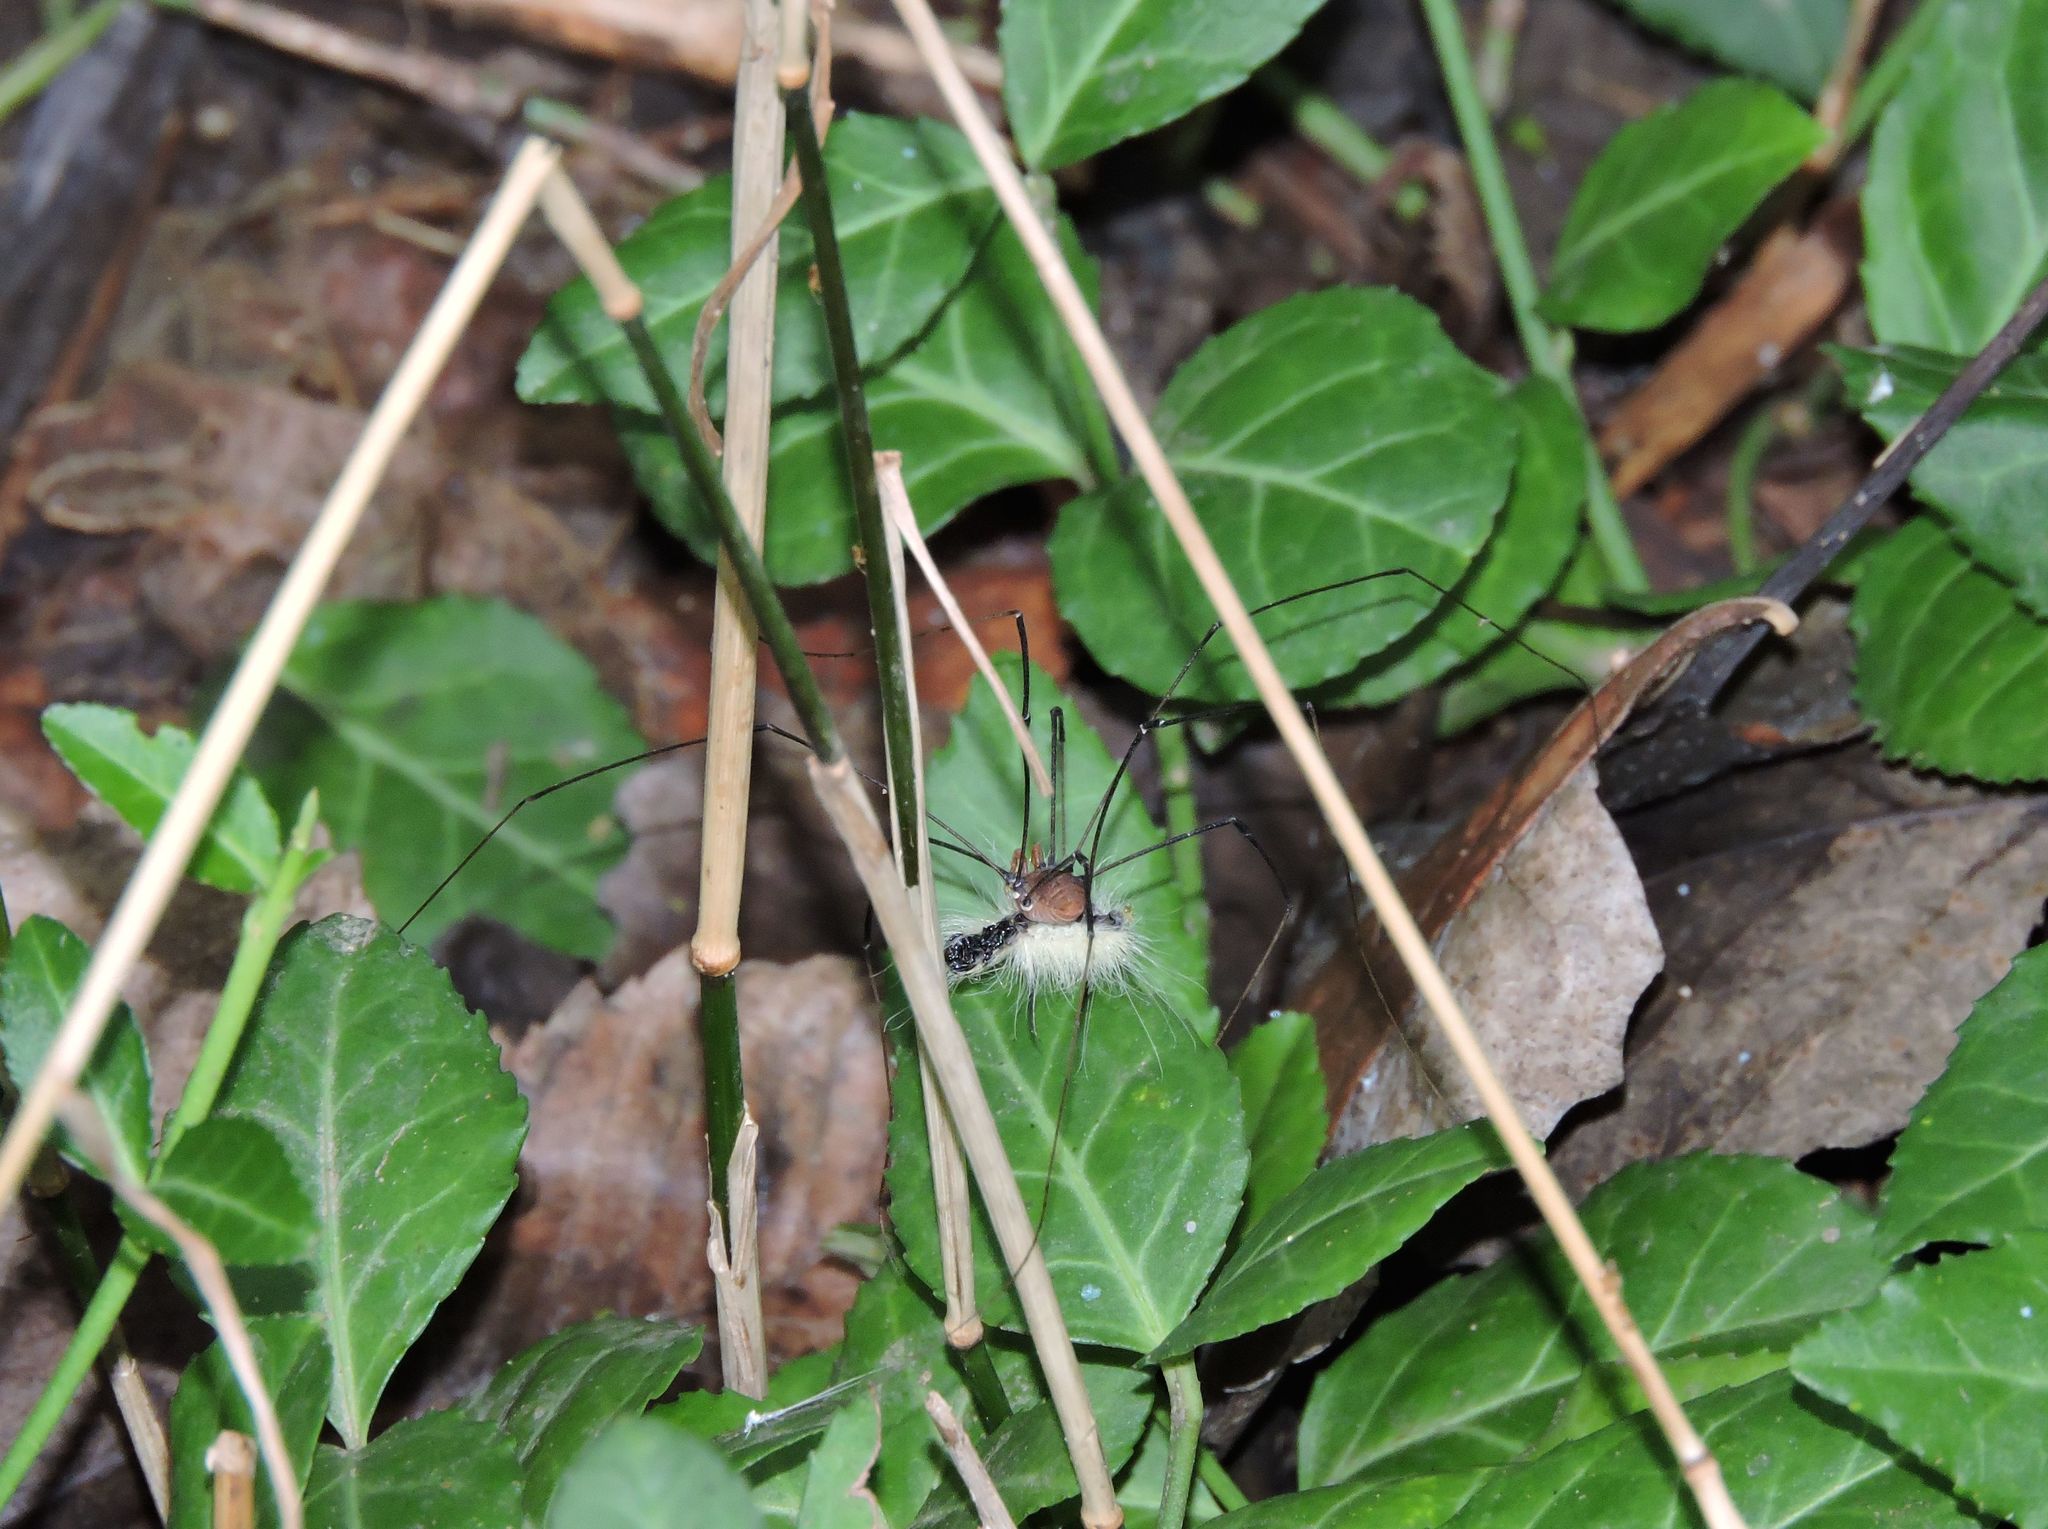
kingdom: Animalia
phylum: Arthropoda
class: Arachnida
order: Opiliones
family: Sclerosomatidae
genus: Leiobunum
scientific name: Leiobunum vittatum
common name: Eastern harvestman
